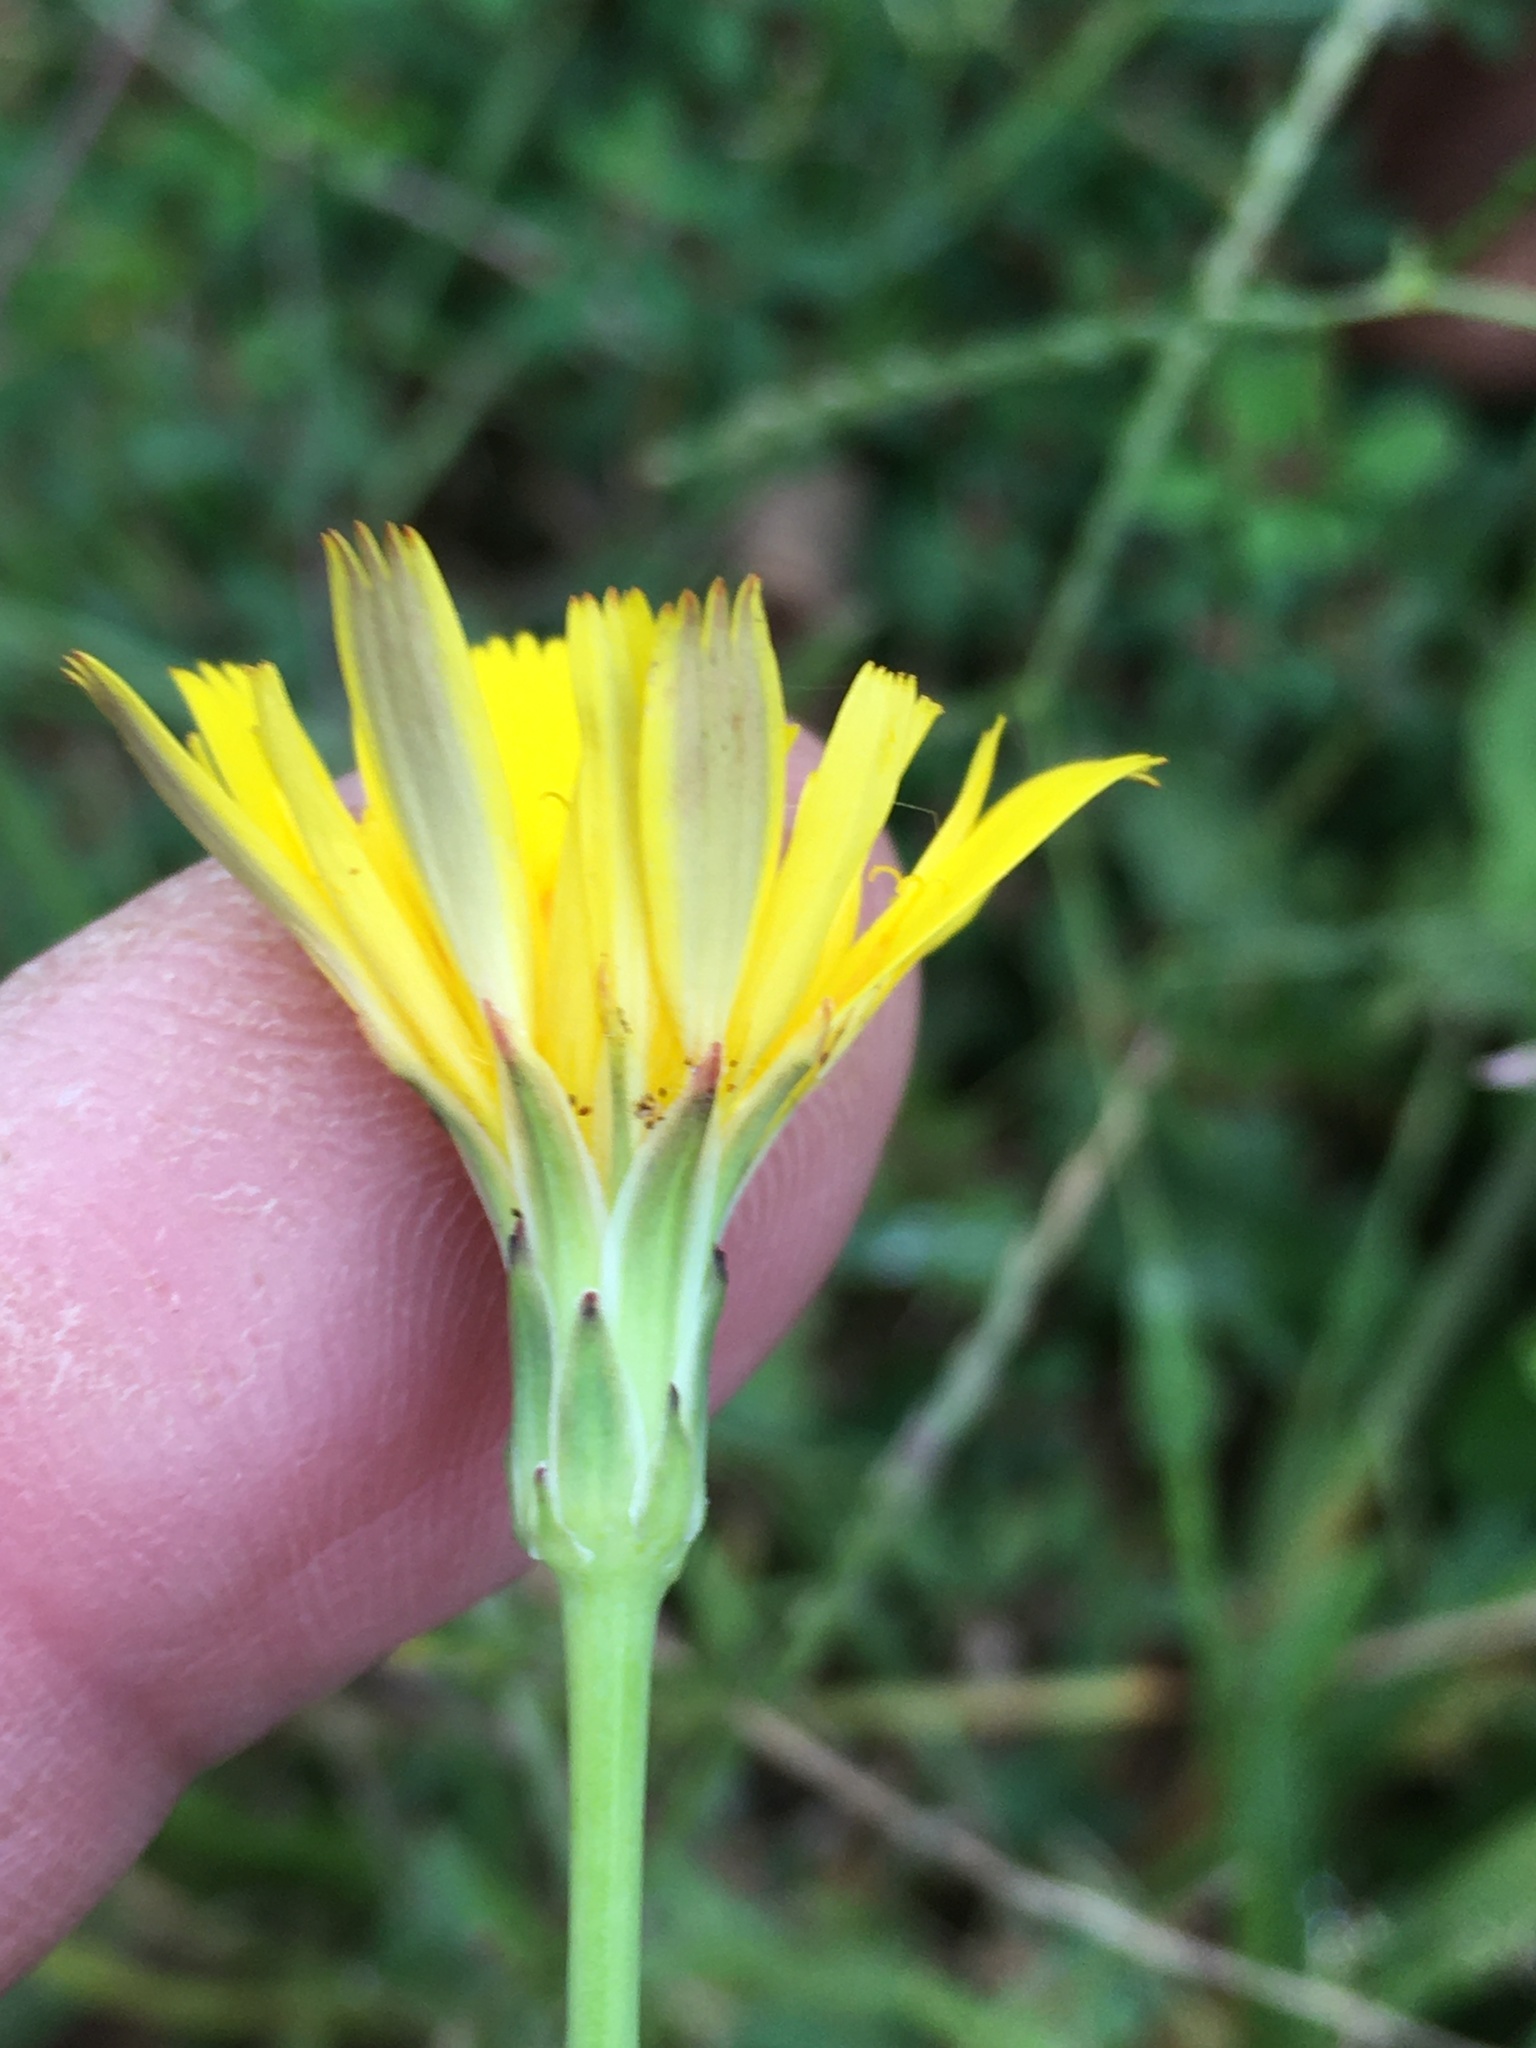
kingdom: Plantae
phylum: Tracheophyta
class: Magnoliopsida
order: Asterales
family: Asteraceae
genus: Hypochaeris
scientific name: Hypochaeris radicata
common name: Flatweed
